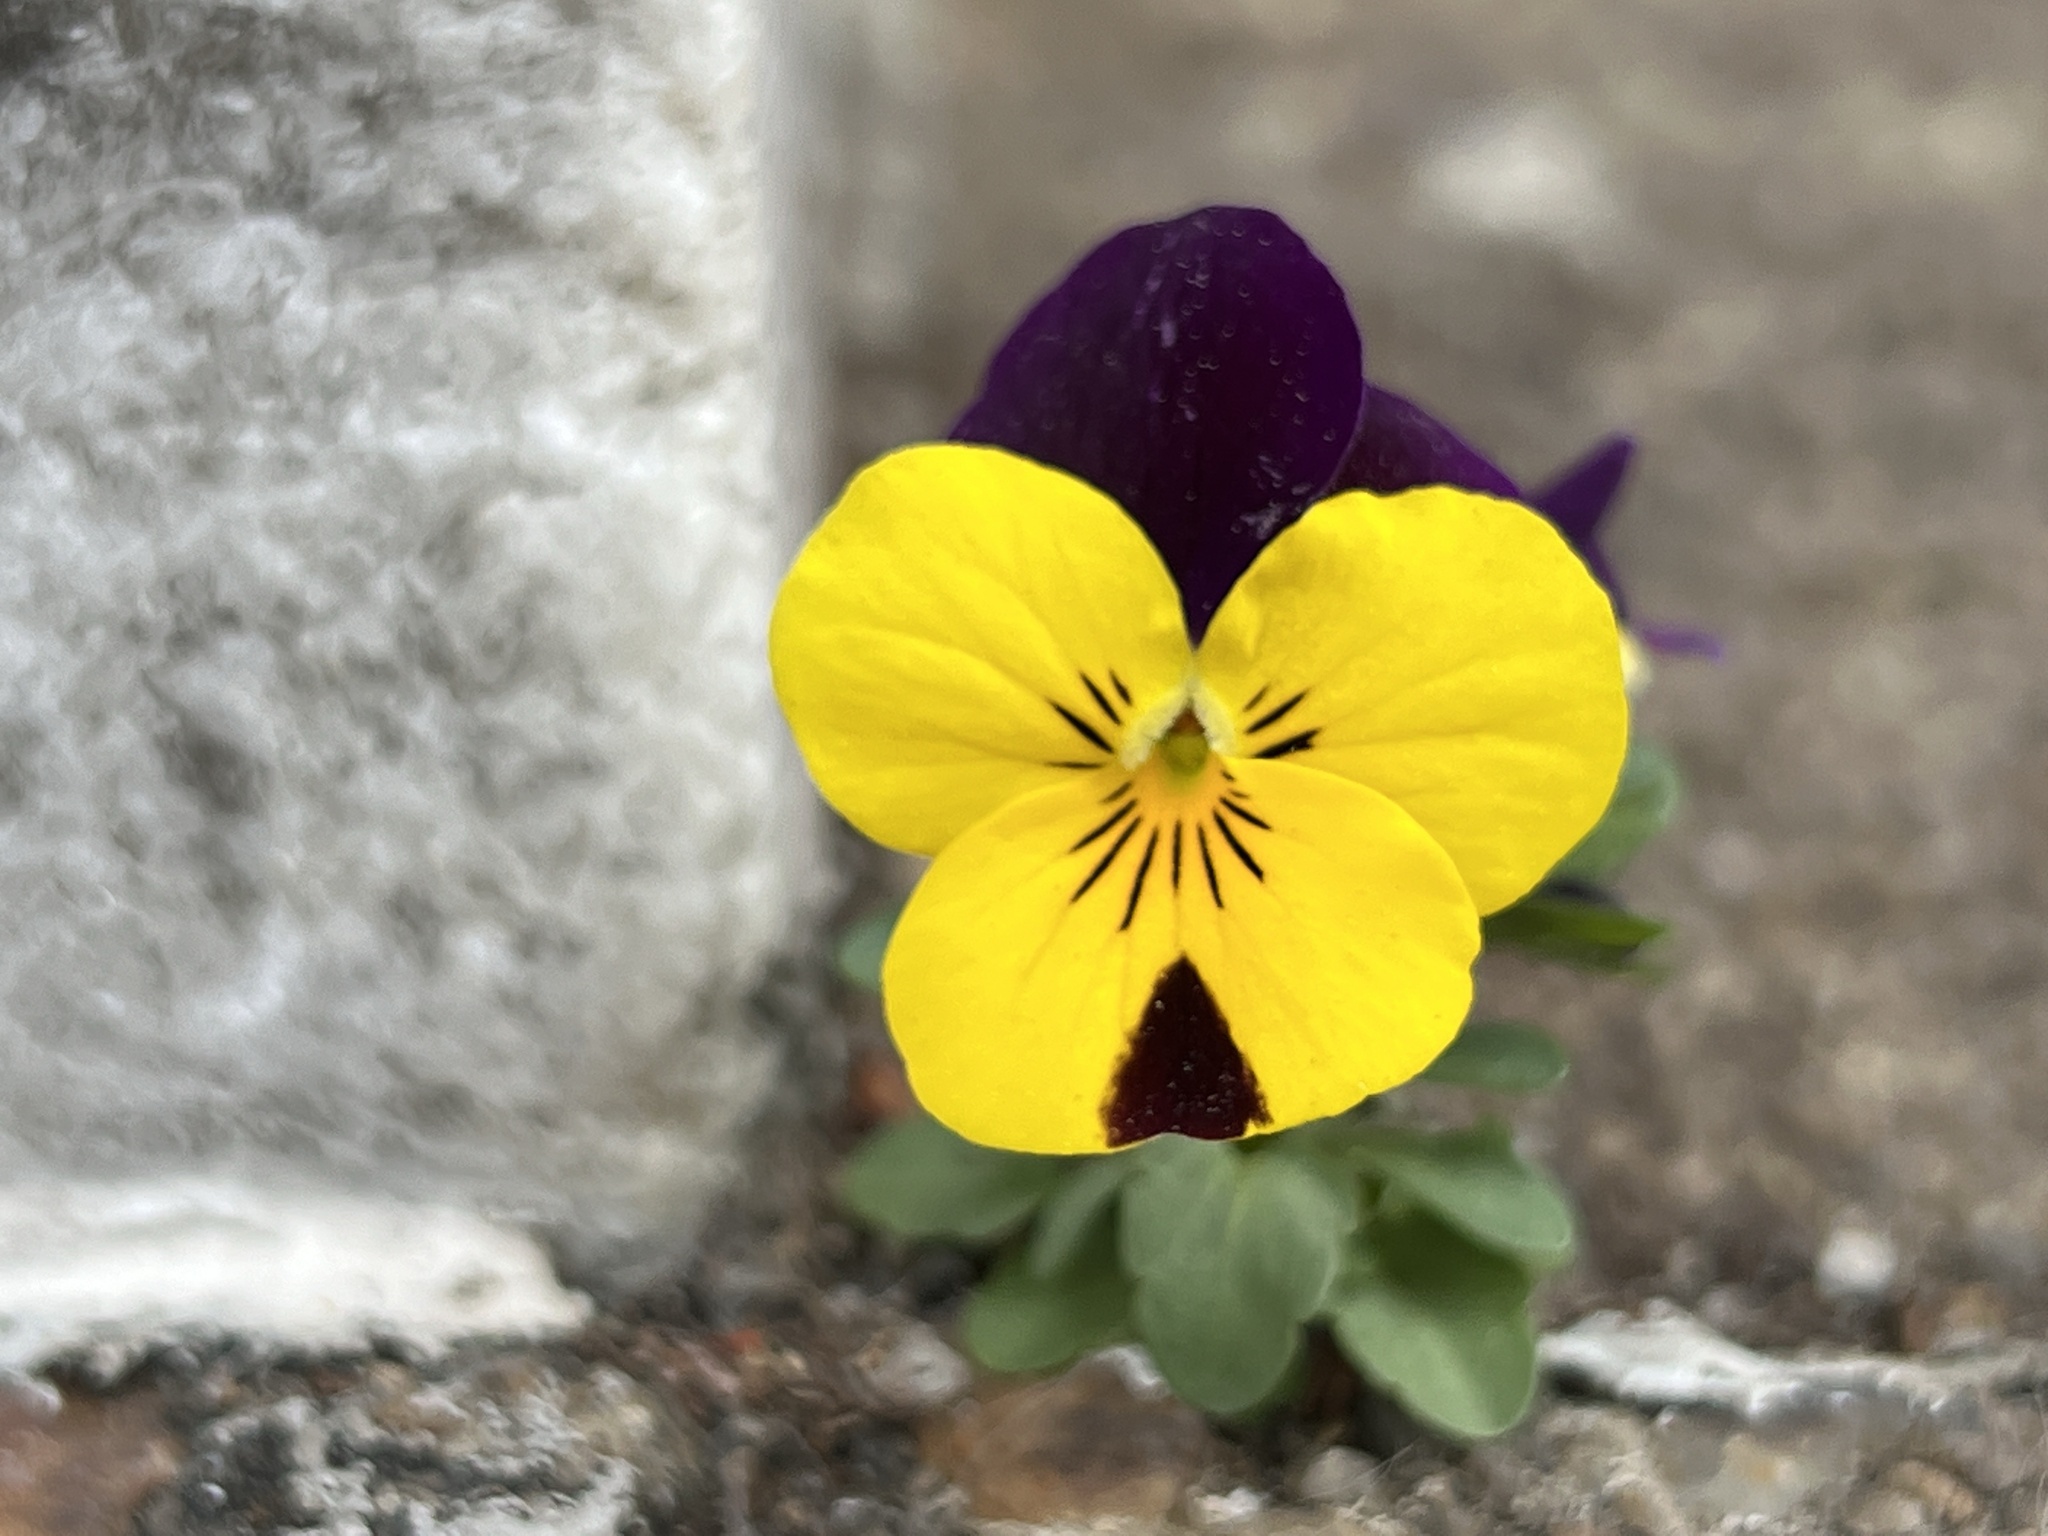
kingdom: Plantae
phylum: Tracheophyta
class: Magnoliopsida
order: Malpighiales
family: Violaceae
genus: Viola
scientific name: Viola williamsii
